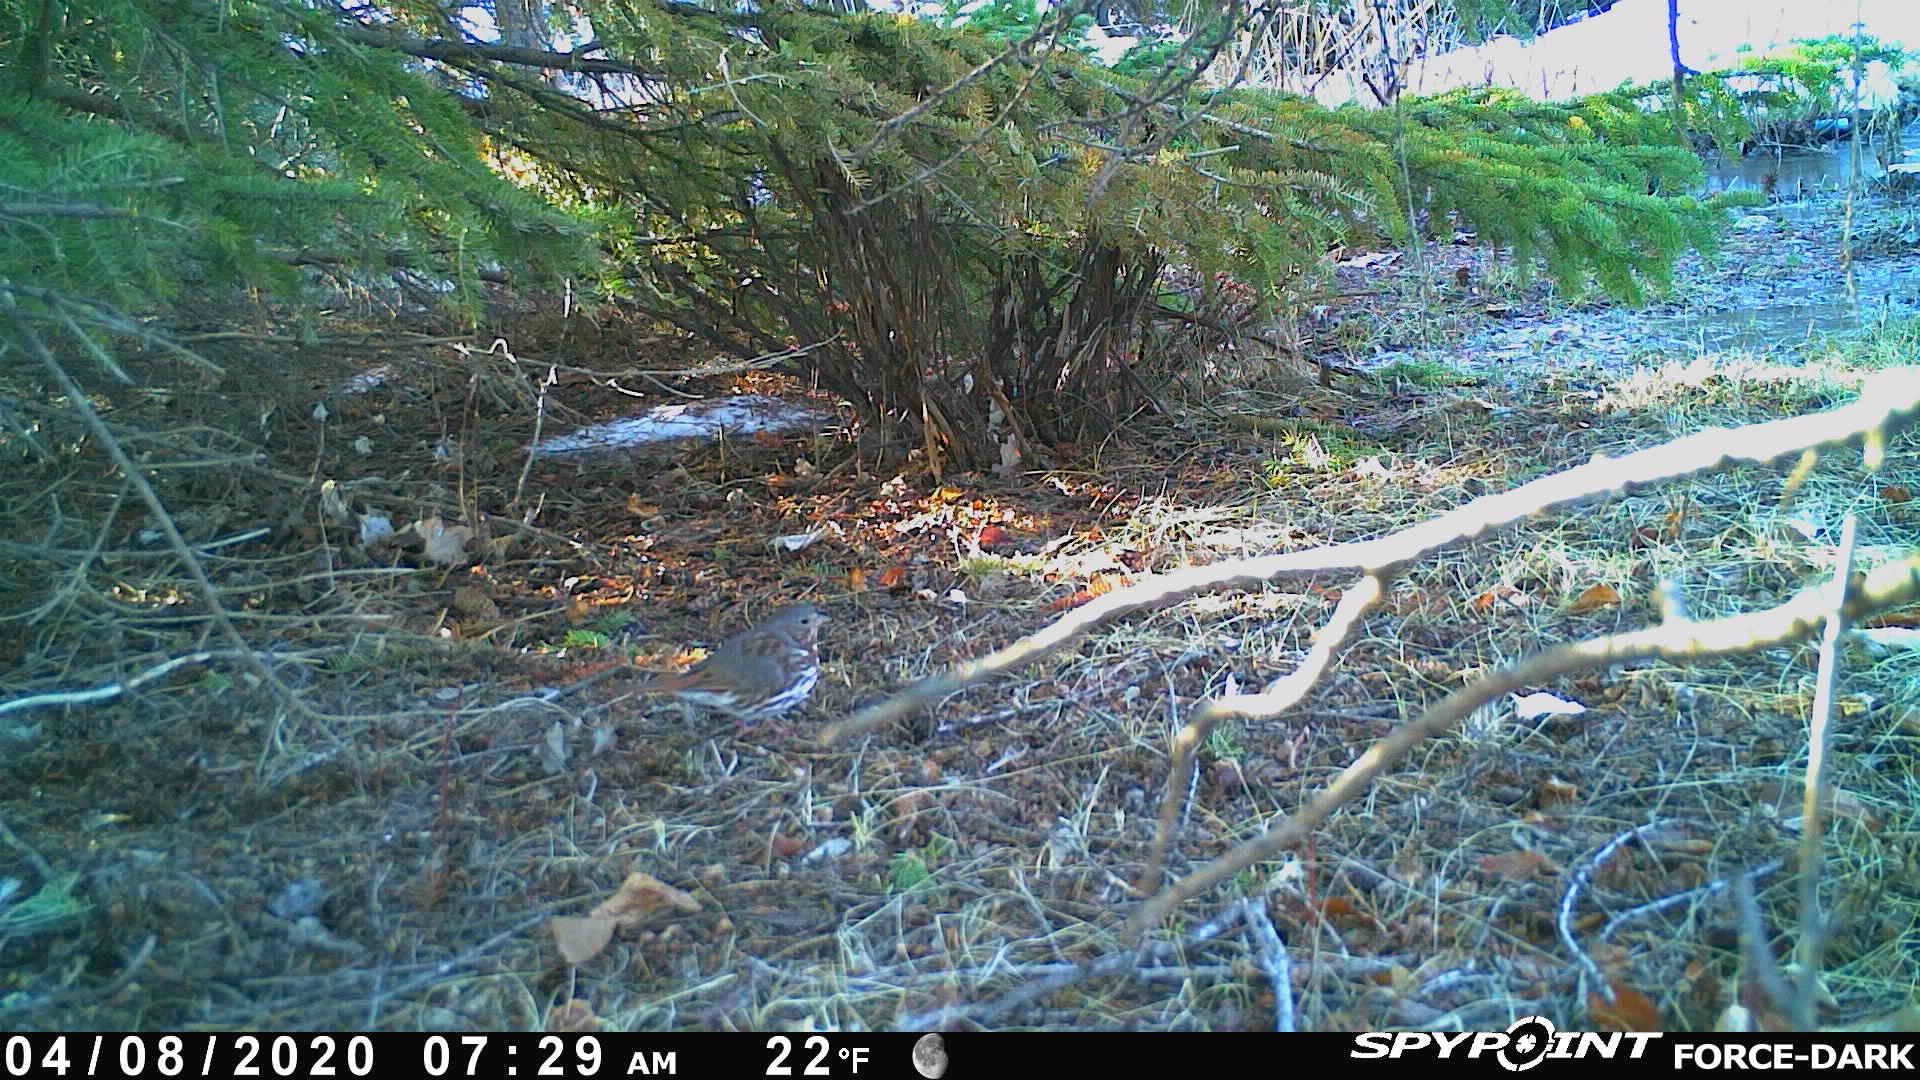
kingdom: Animalia
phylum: Chordata
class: Aves
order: Passeriformes
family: Passerellidae
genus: Passerella
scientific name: Passerella iliaca
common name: Fox sparrow
